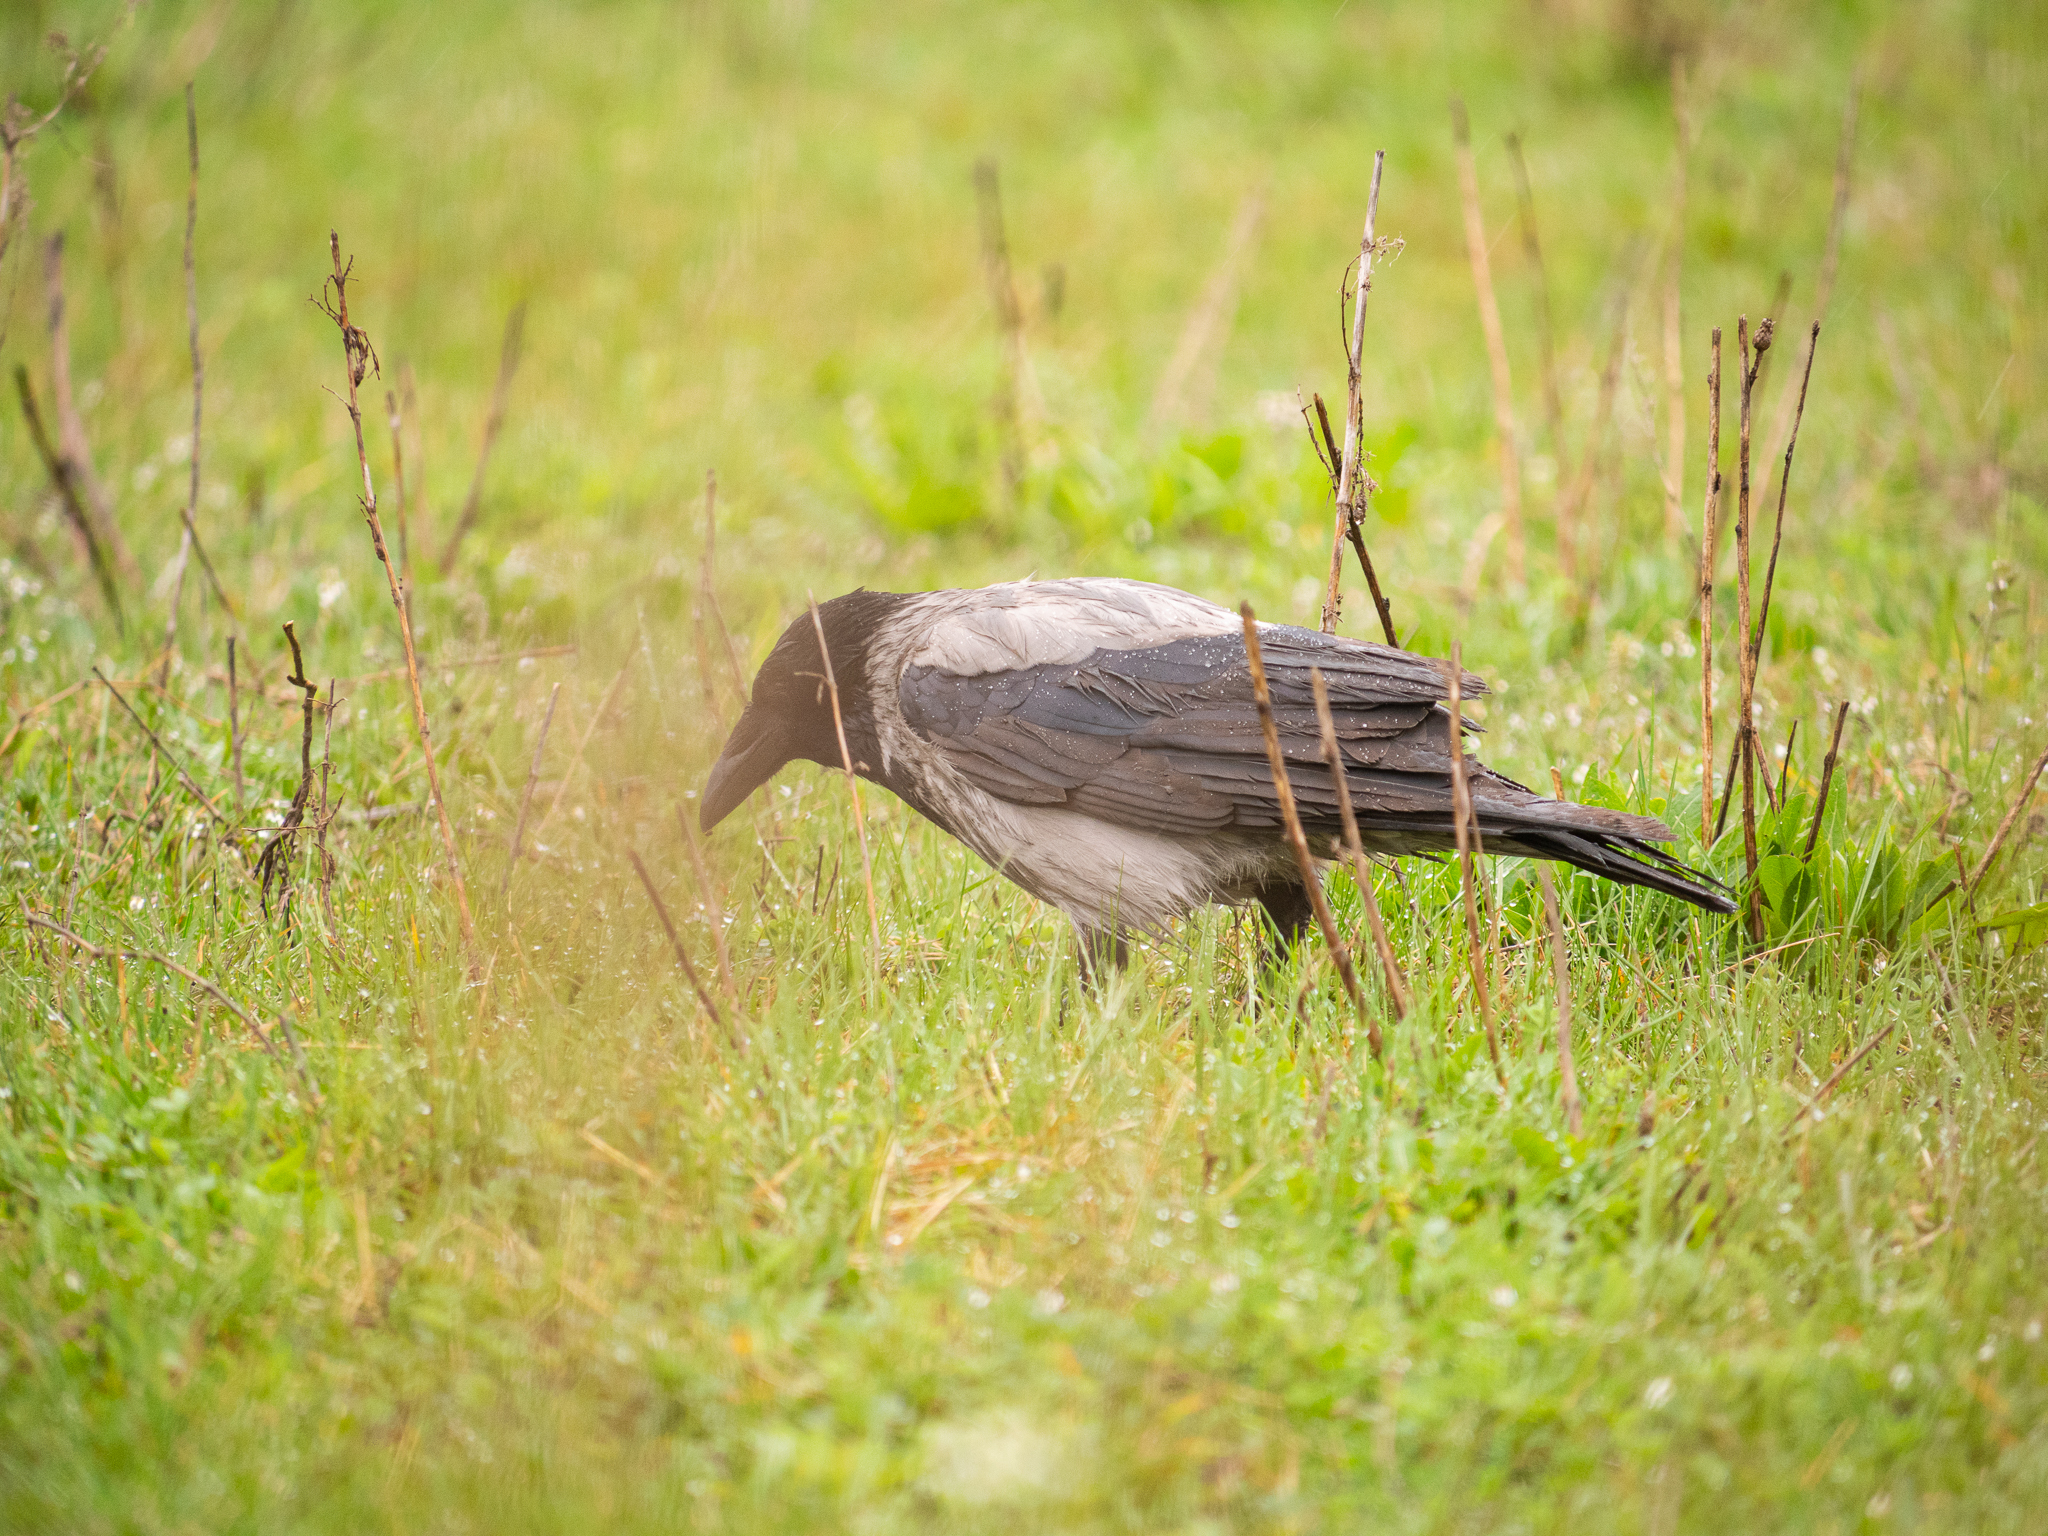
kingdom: Animalia
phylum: Chordata
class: Aves
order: Passeriformes
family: Corvidae
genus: Corvus
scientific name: Corvus cornix
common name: Hooded crow
